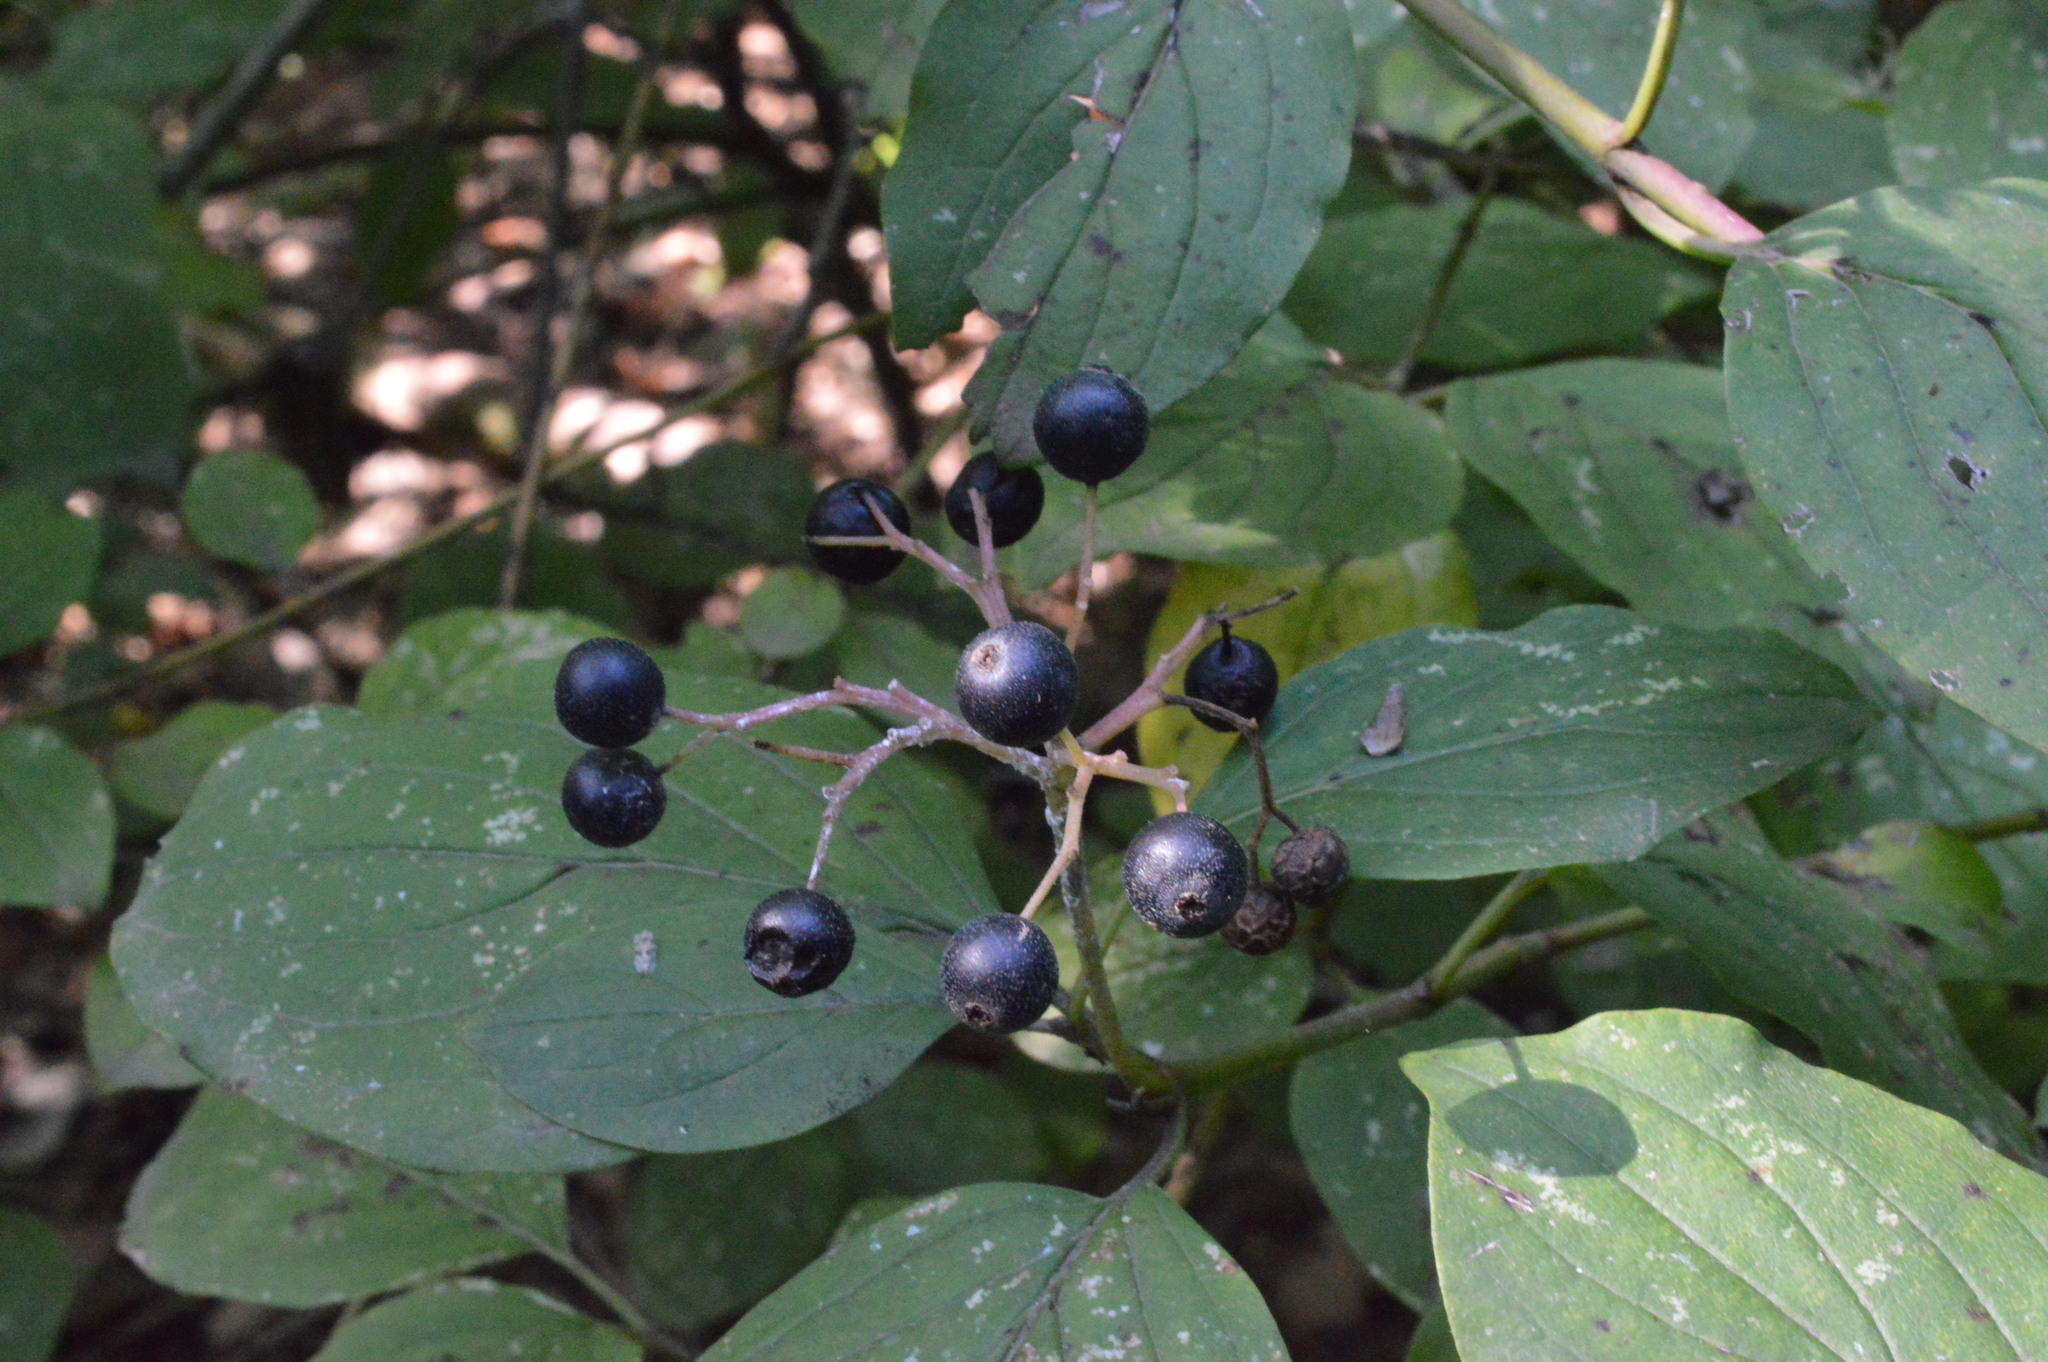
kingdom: Plantae
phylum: Tracheophyta
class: Magnoliopsida
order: Cornales
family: Cornaceae
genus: Cornus
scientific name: Cornus sanguinea
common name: Dogwood
